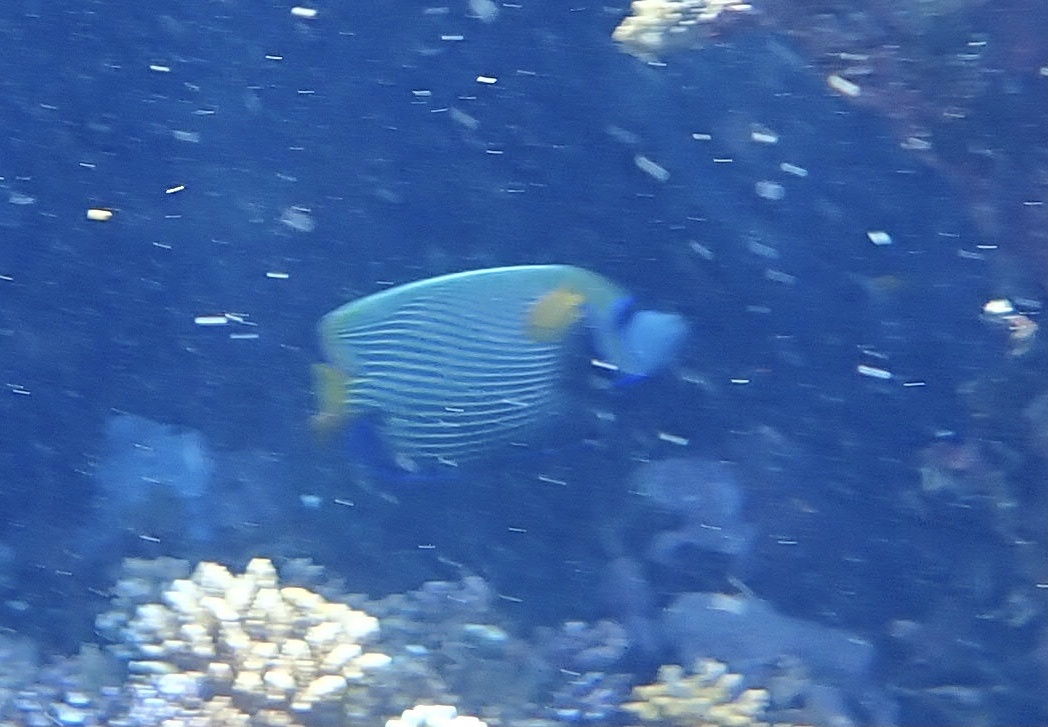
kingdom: Animalia
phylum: Chordata
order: Perciformes
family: Pomacanthidae
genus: Pomacanthus
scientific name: Pomacanthus imperator
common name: Emperor angelfish
